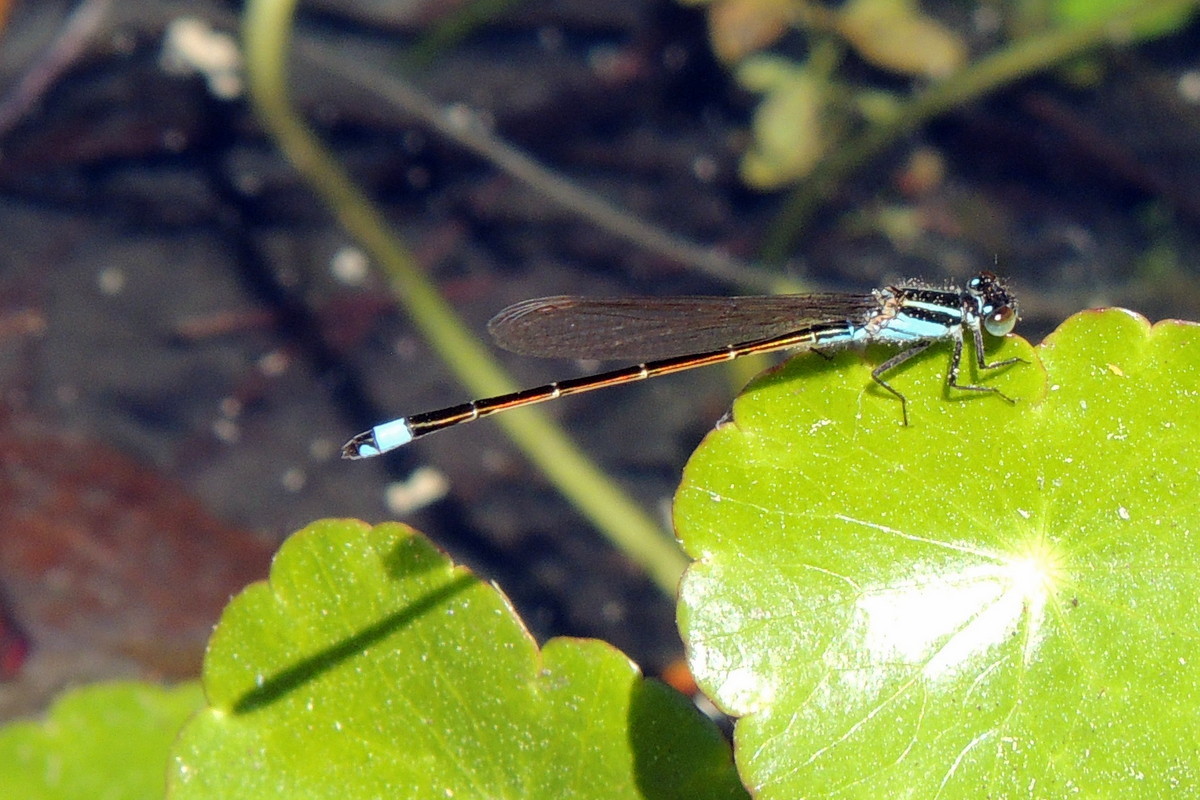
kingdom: Animalia
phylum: Arthropoda
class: Insecta
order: Odonata
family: Coenagrionidae
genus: Ischnura
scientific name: Ischnura ramburii
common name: Rambur's forktail
